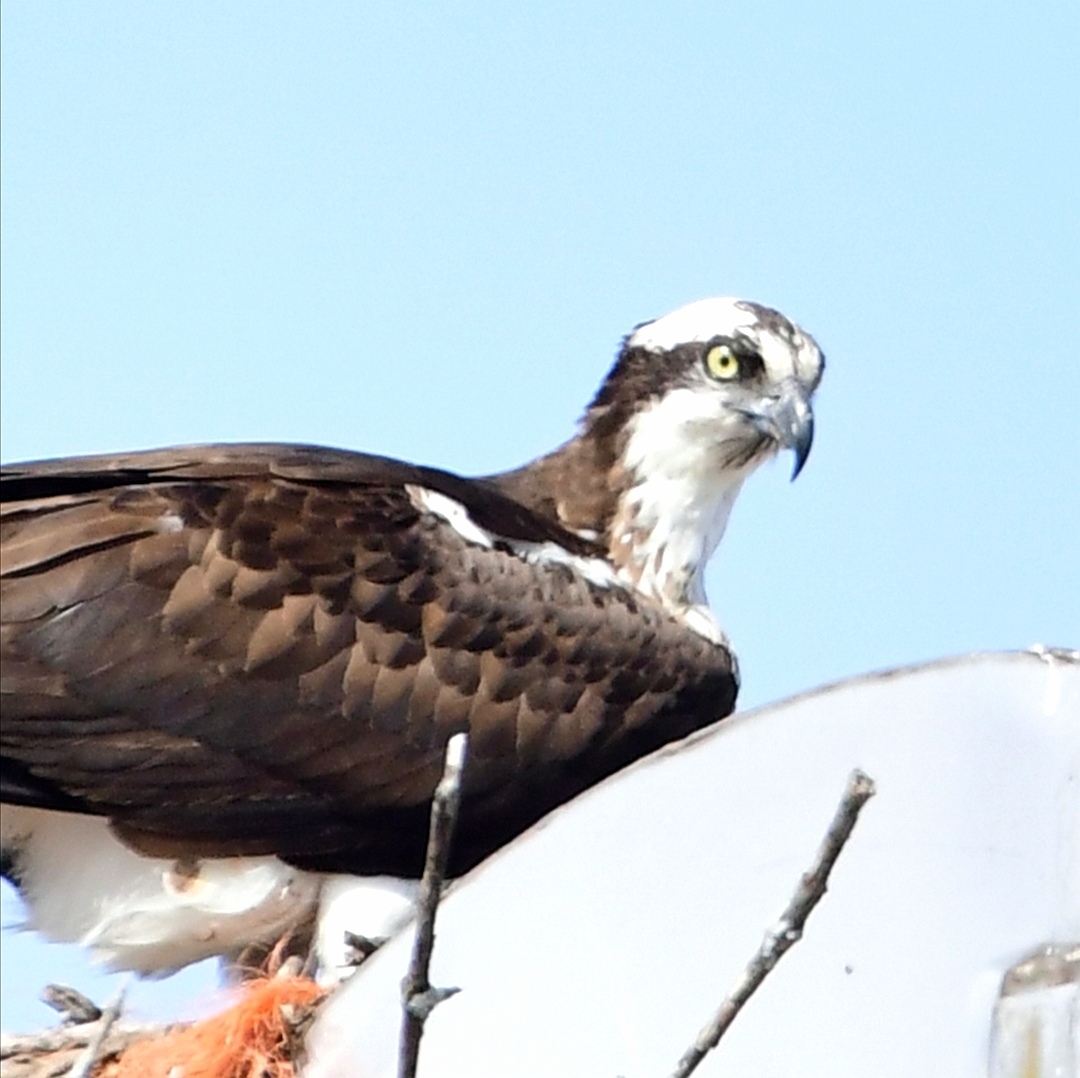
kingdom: Animalia
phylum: Chordata
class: Aves
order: Accipitriformes
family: Pandionidae
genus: Pandion
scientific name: Pandion haliaetus
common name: Osprey
